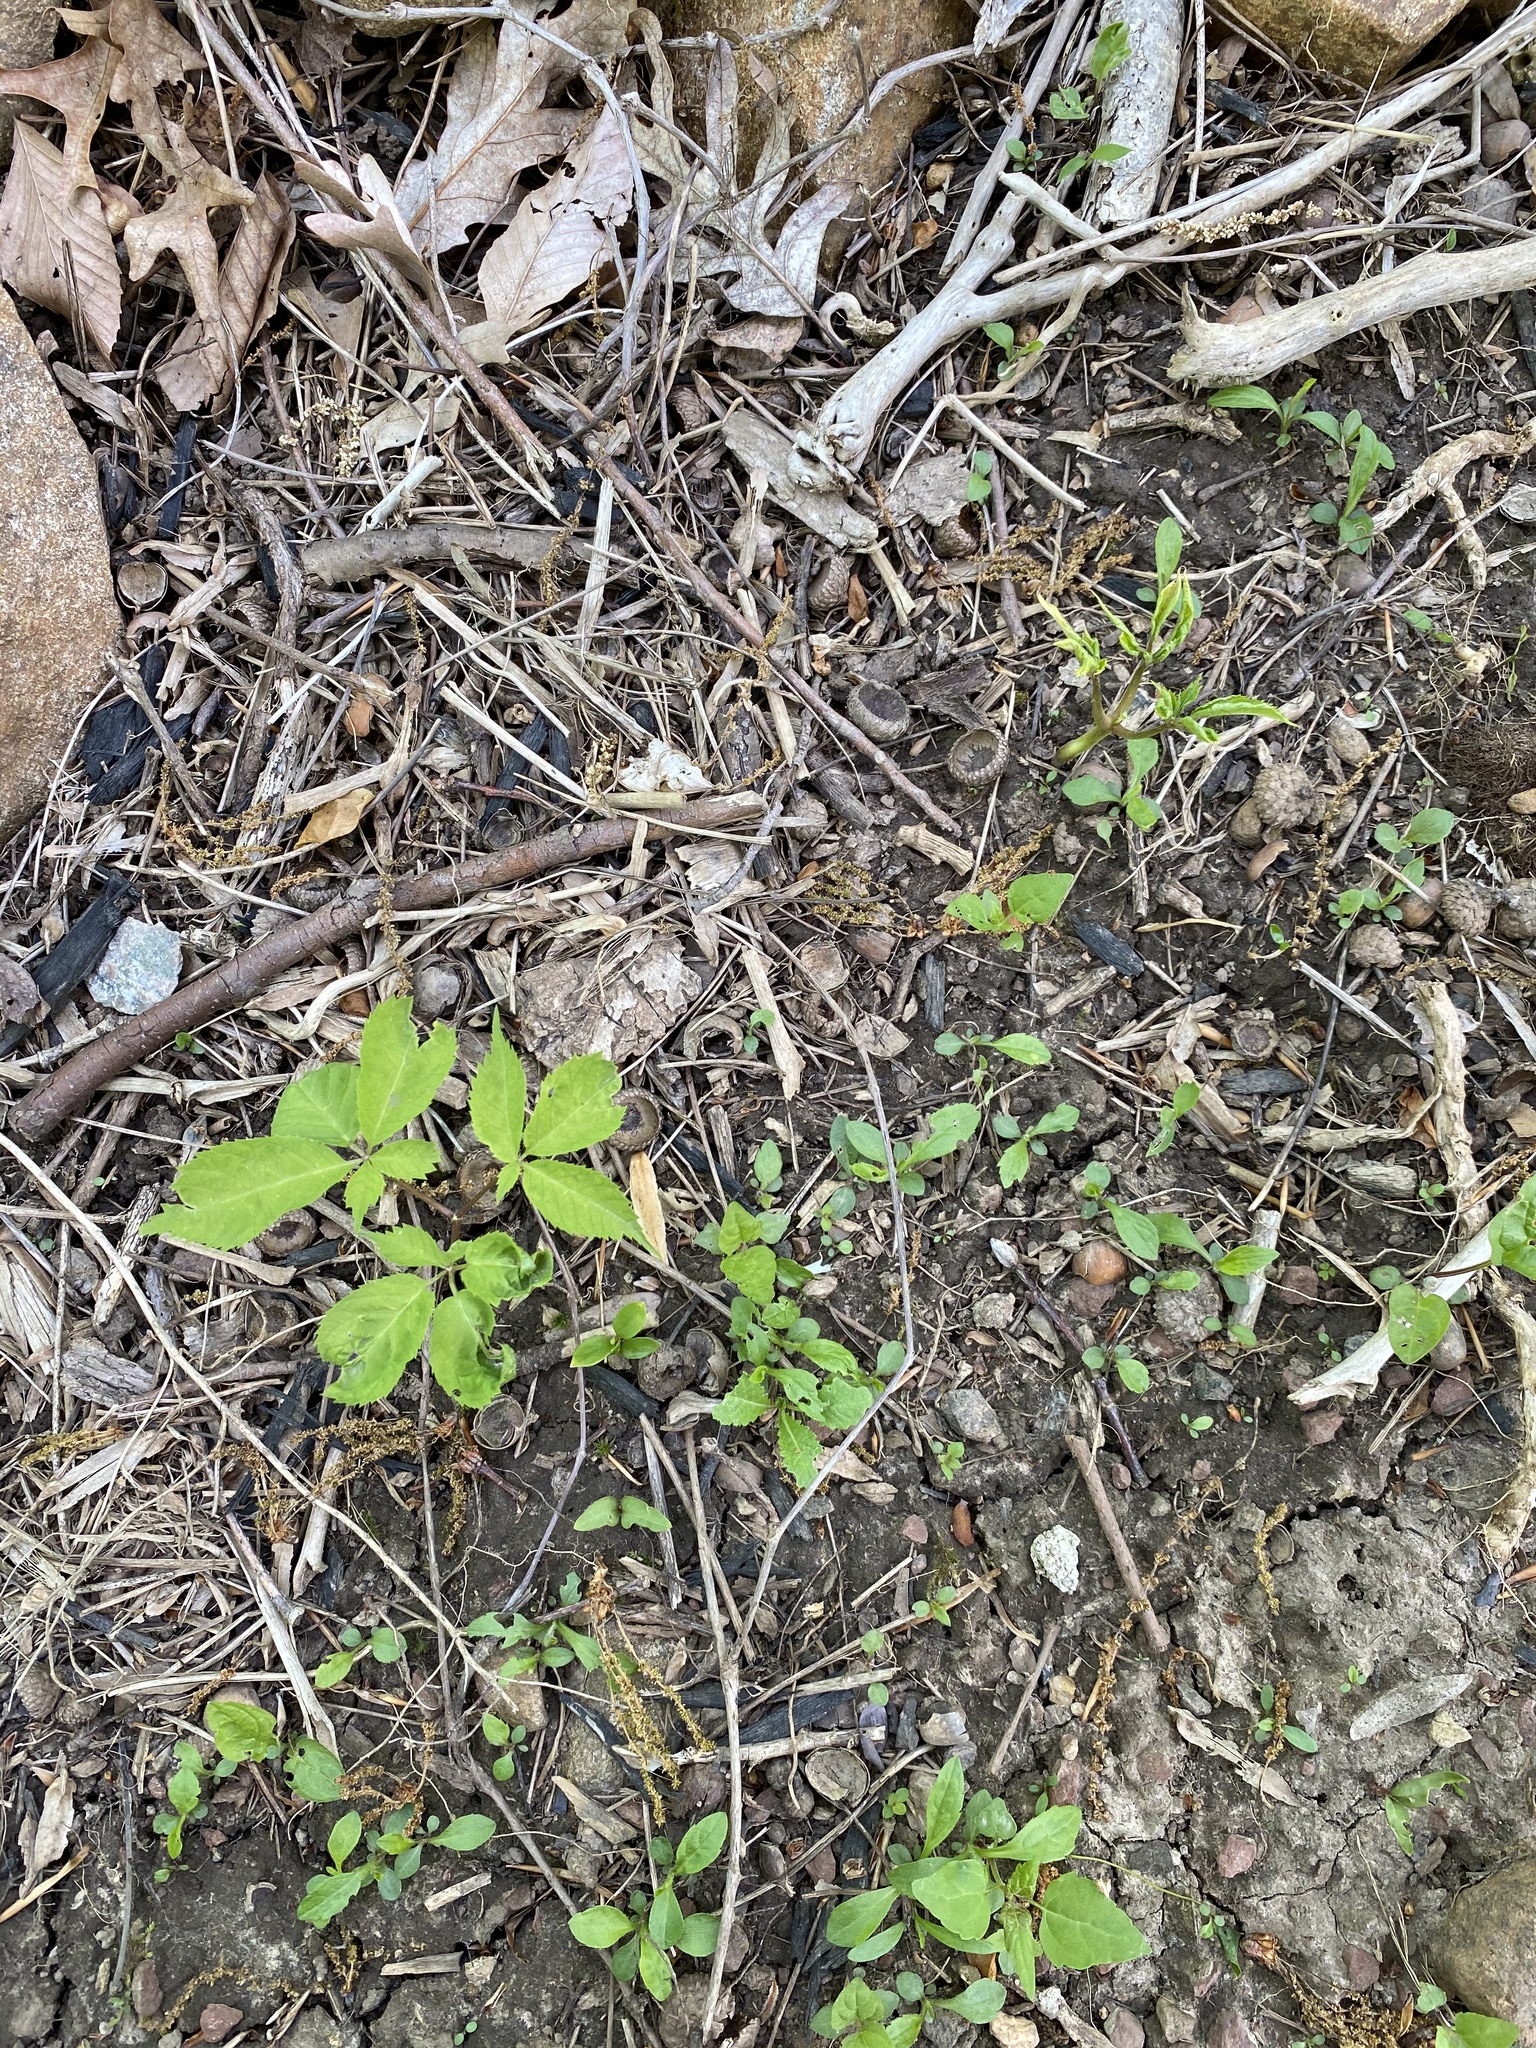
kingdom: Plantae
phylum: Tracheophyta
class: Magnoliopsida
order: Apiales
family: Araliaceae
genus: Panax
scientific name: Panax quinquefolius
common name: American ginseng
